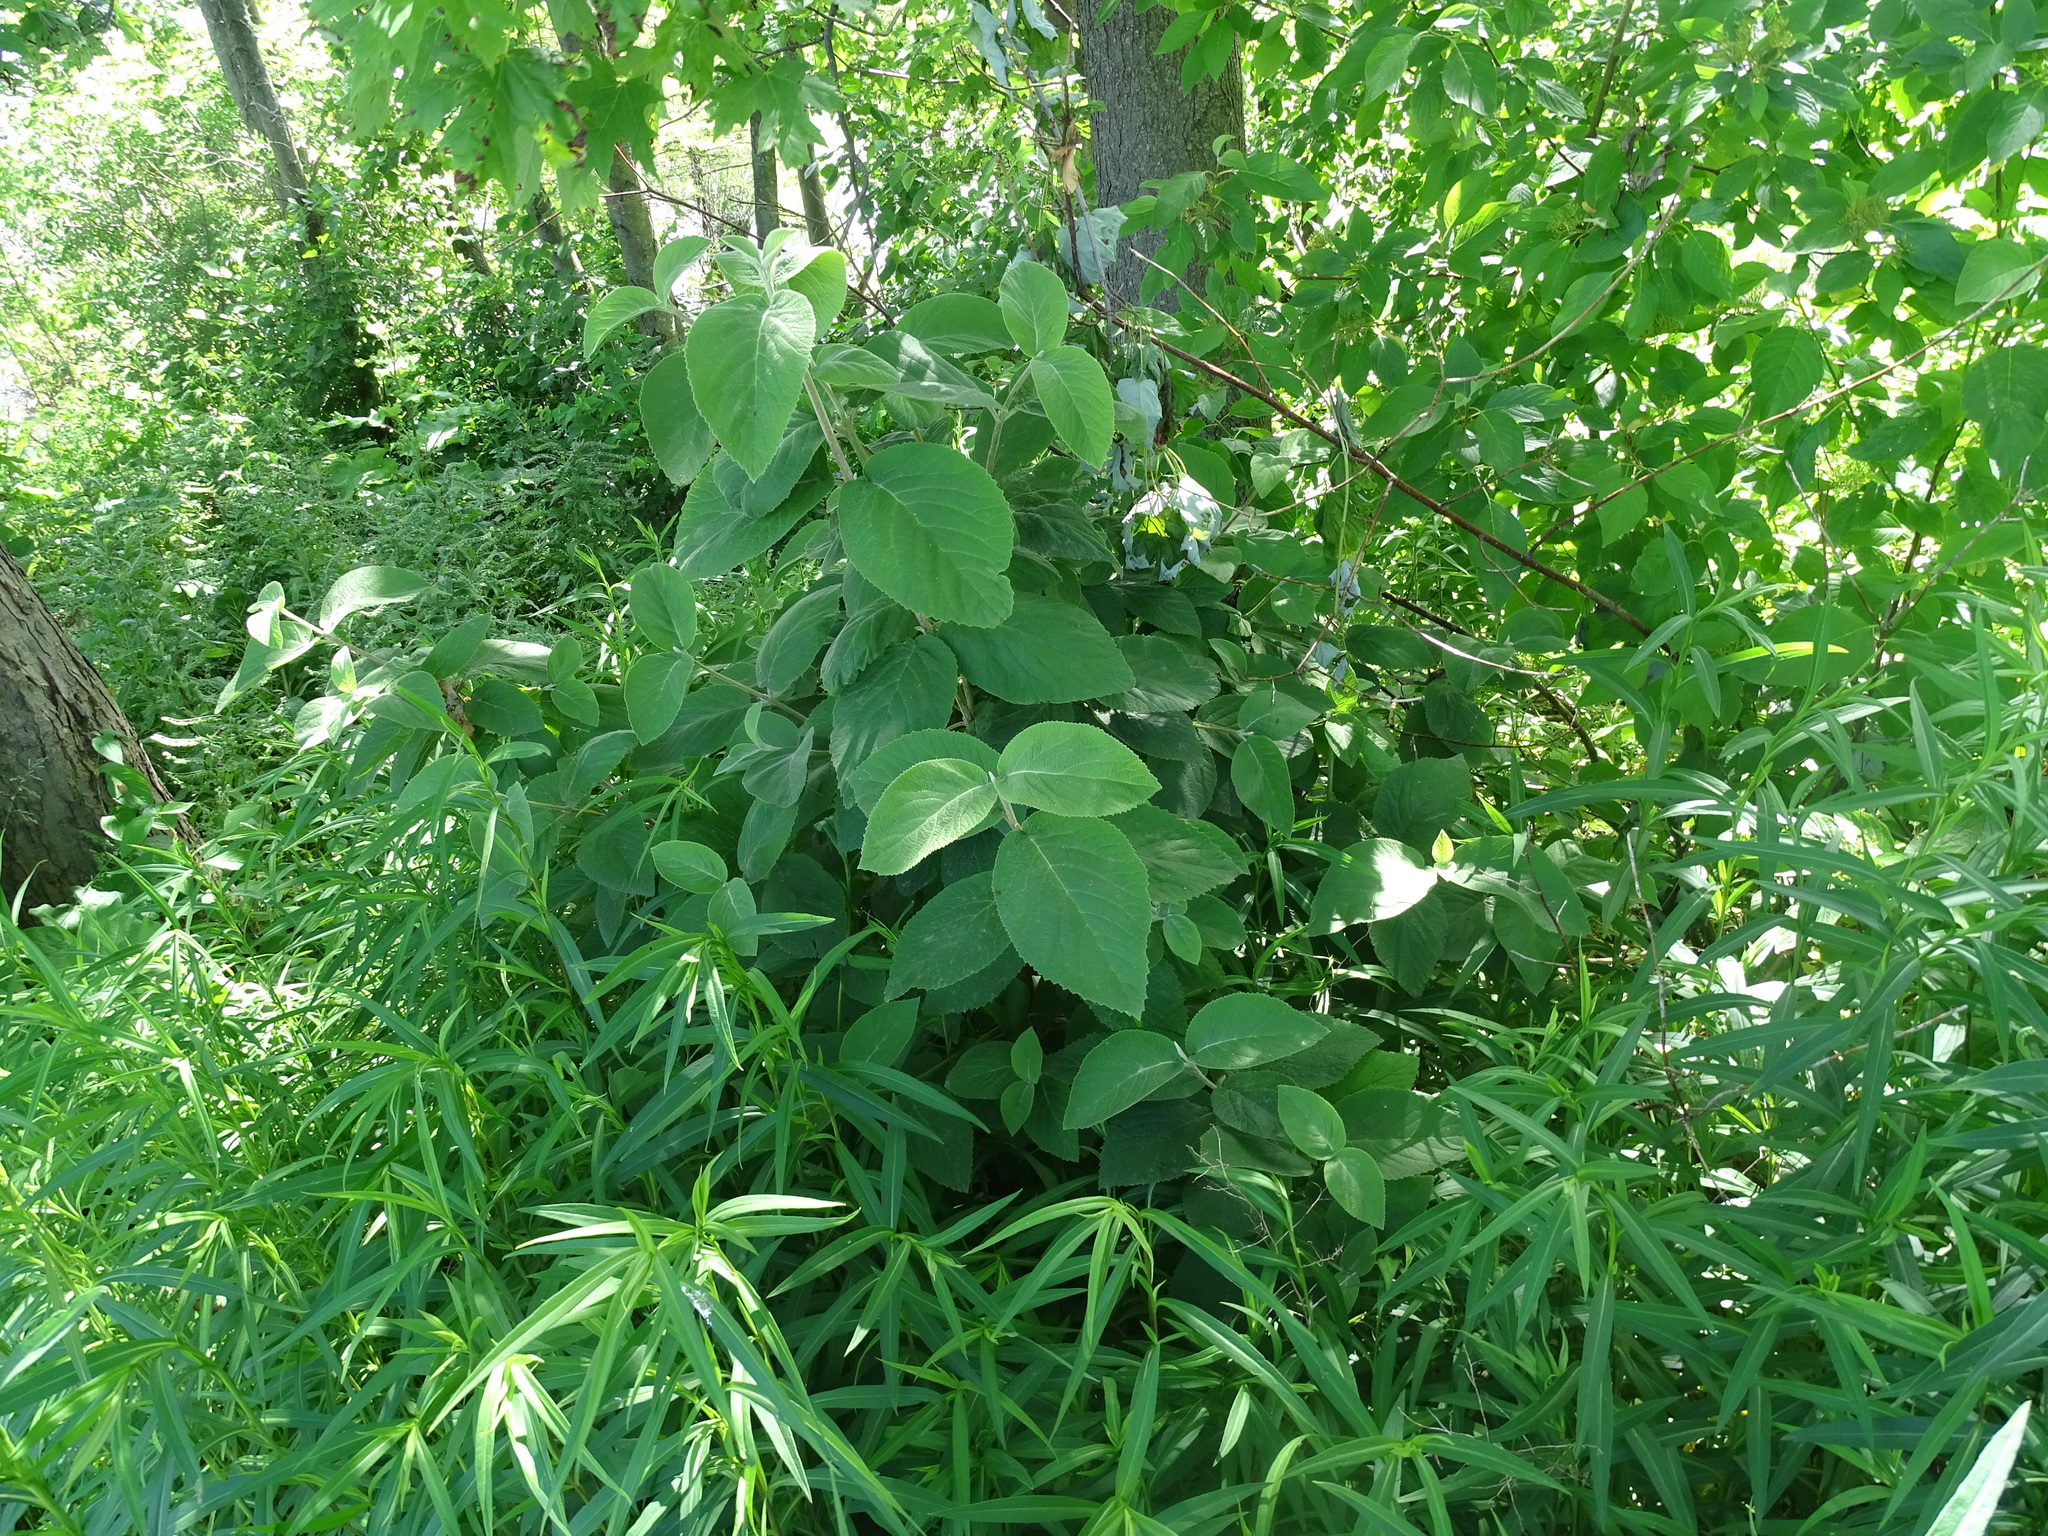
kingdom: Plantae
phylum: Tracheophyta
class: Magnoliopsida
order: Dipsacales
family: Viburnaceae
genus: Viburnum
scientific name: Viburnum lantana
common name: Wayfaring tree
